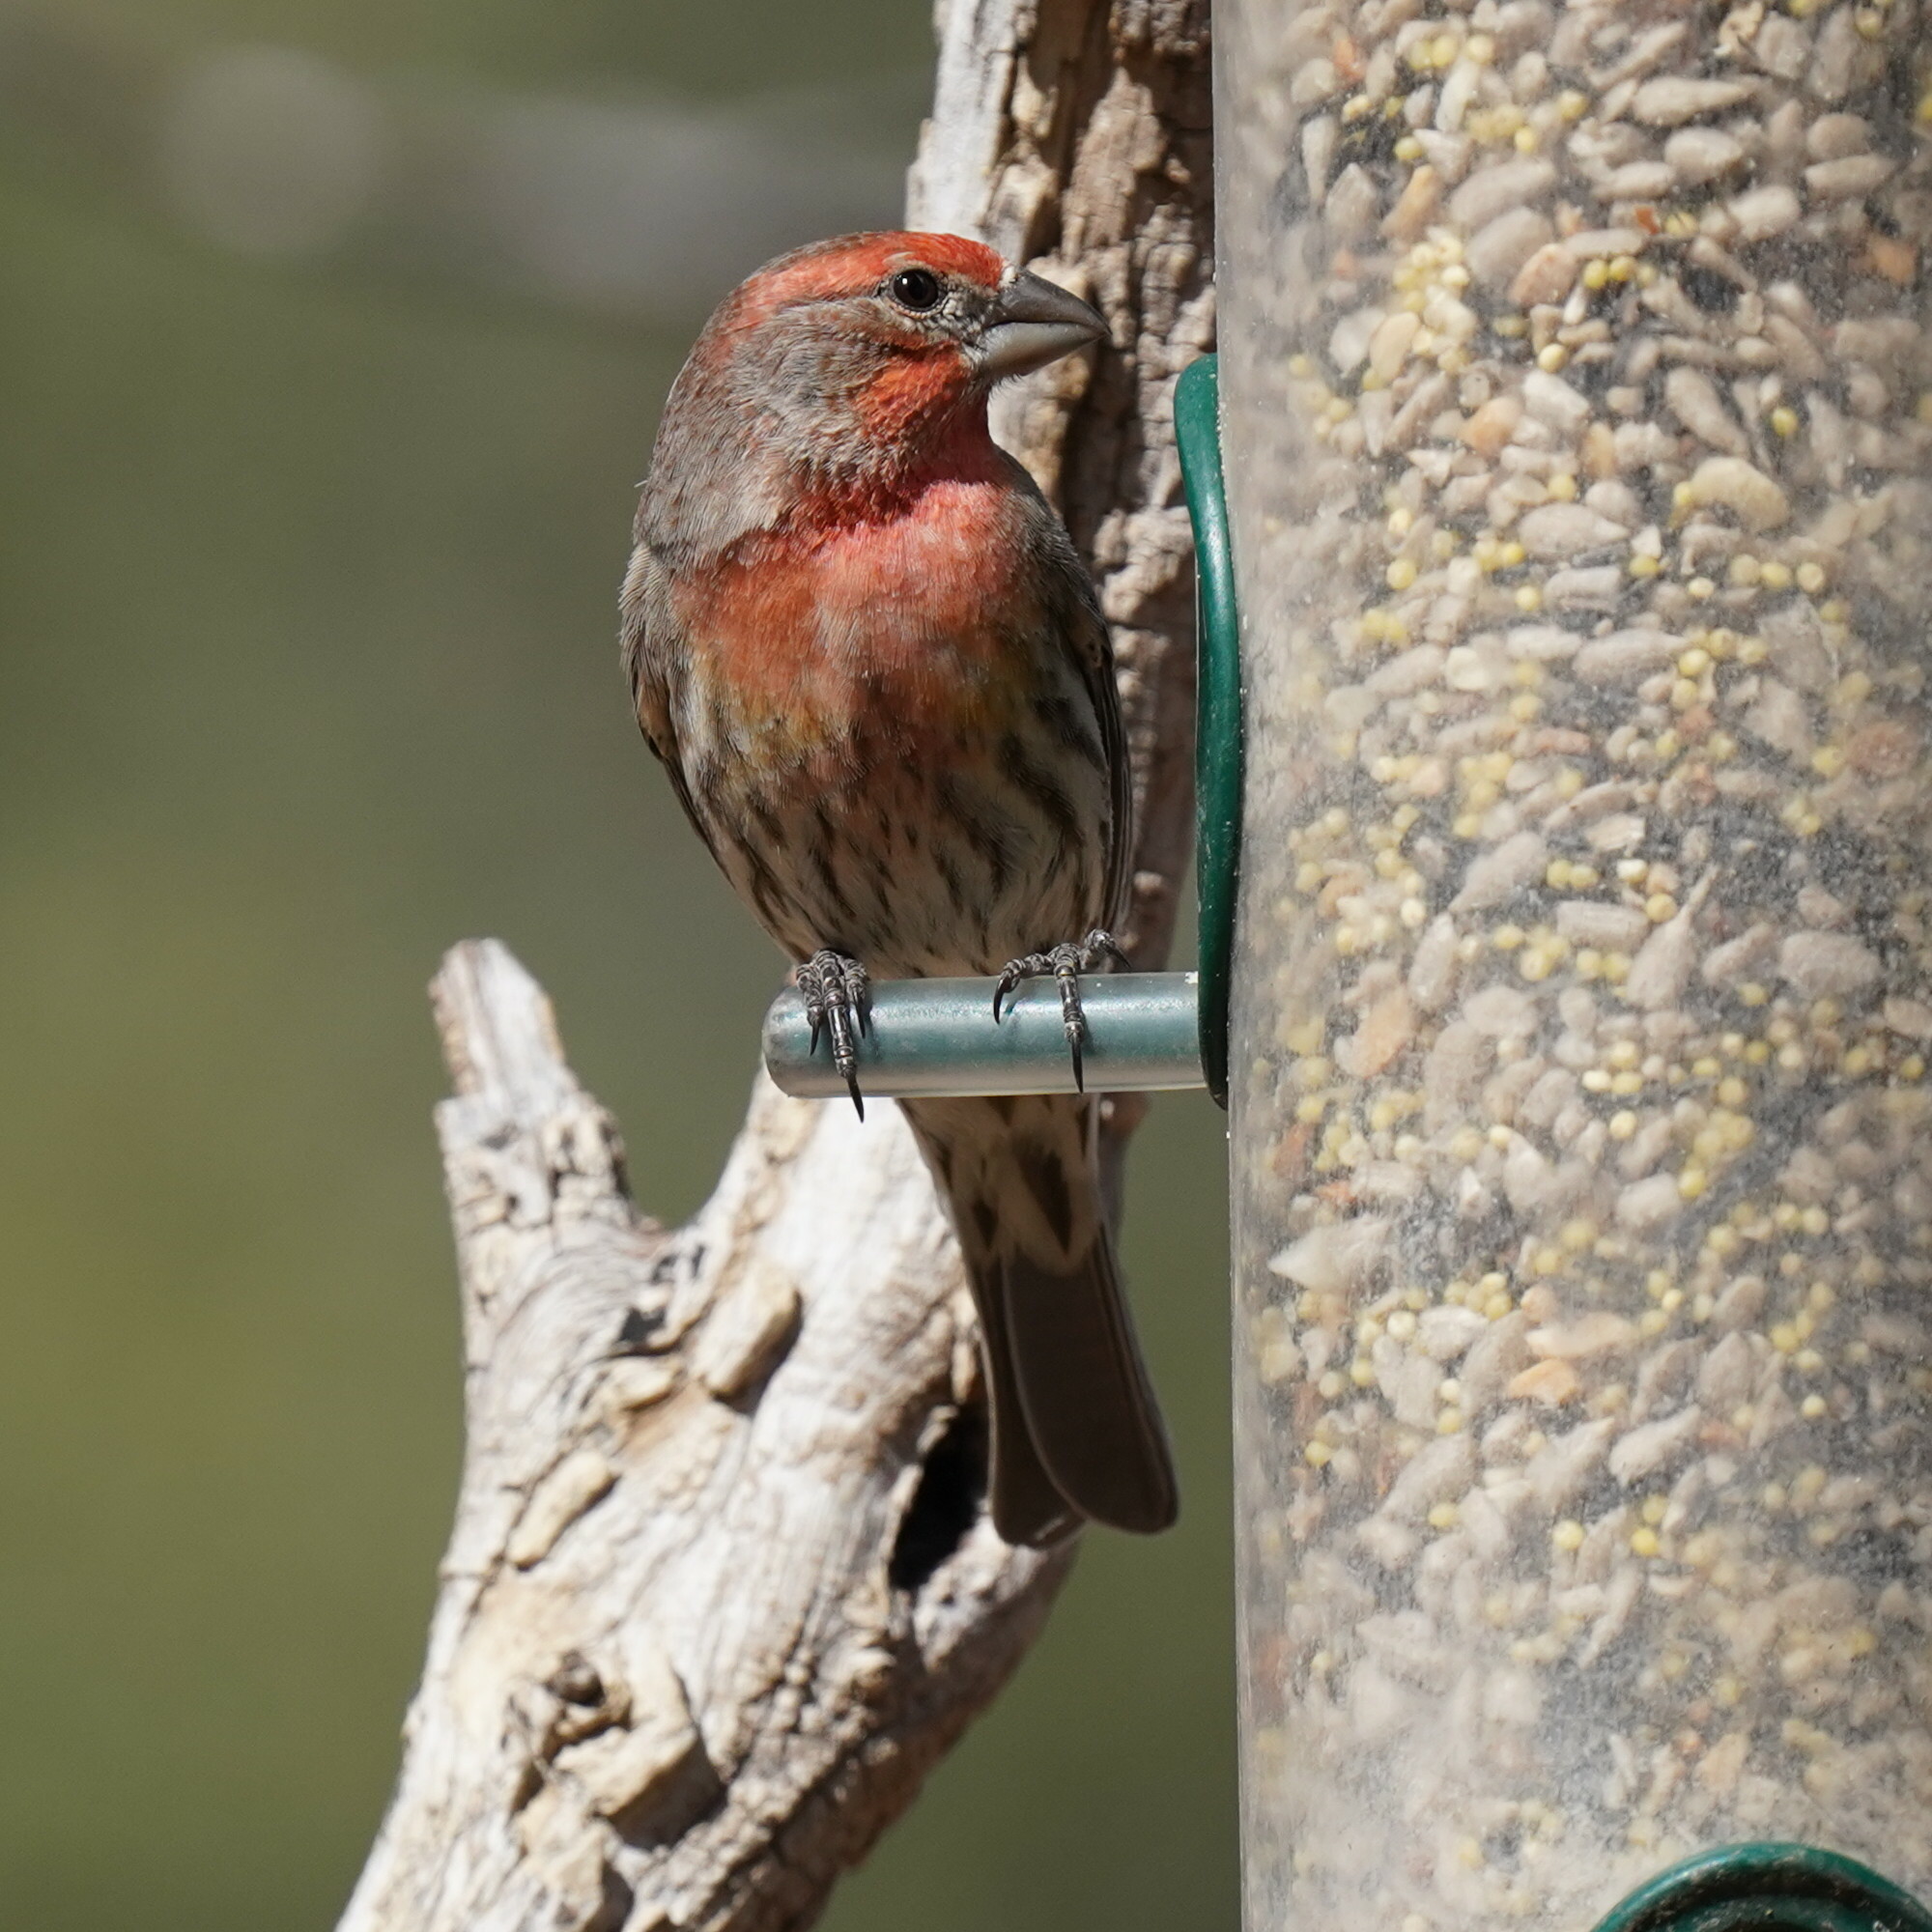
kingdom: Animalia
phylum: Chordata
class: Aves
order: Passeriformes
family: Fringillidae
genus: Haemorhous
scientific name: Haemorhous mexicanus
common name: House finch
